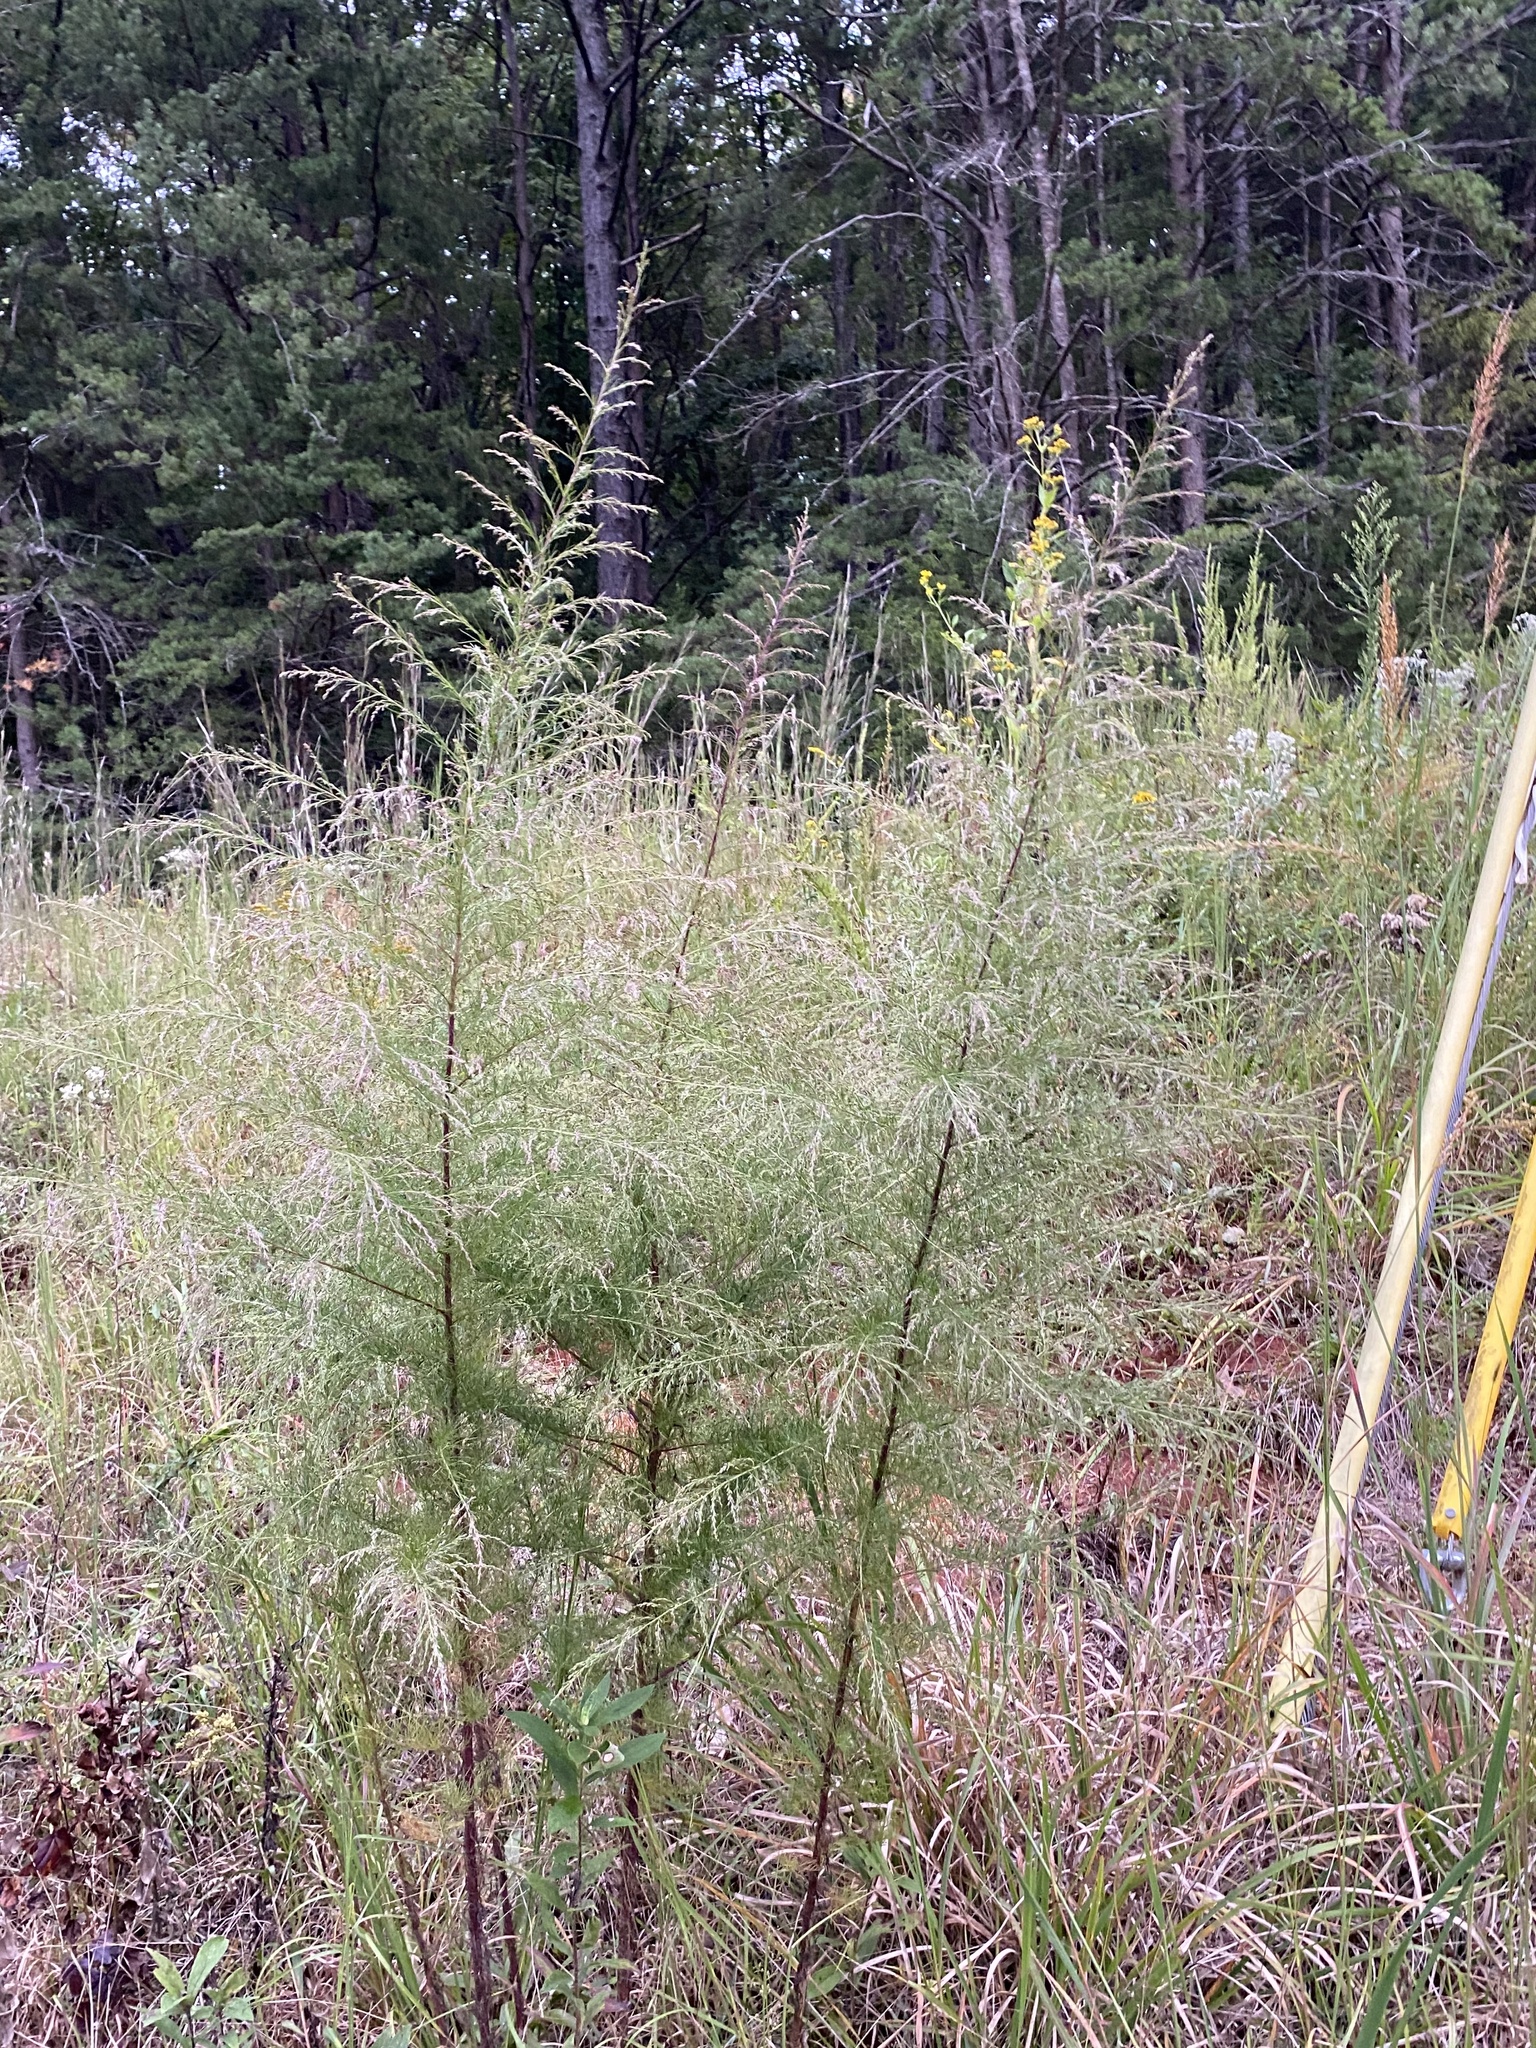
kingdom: Plantae
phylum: Tracheophyta
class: Magnoliopsida
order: Asterales
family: Asteraceae
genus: Eupatorium
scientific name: Eupatorium capillifolium
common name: Dog-fennel
